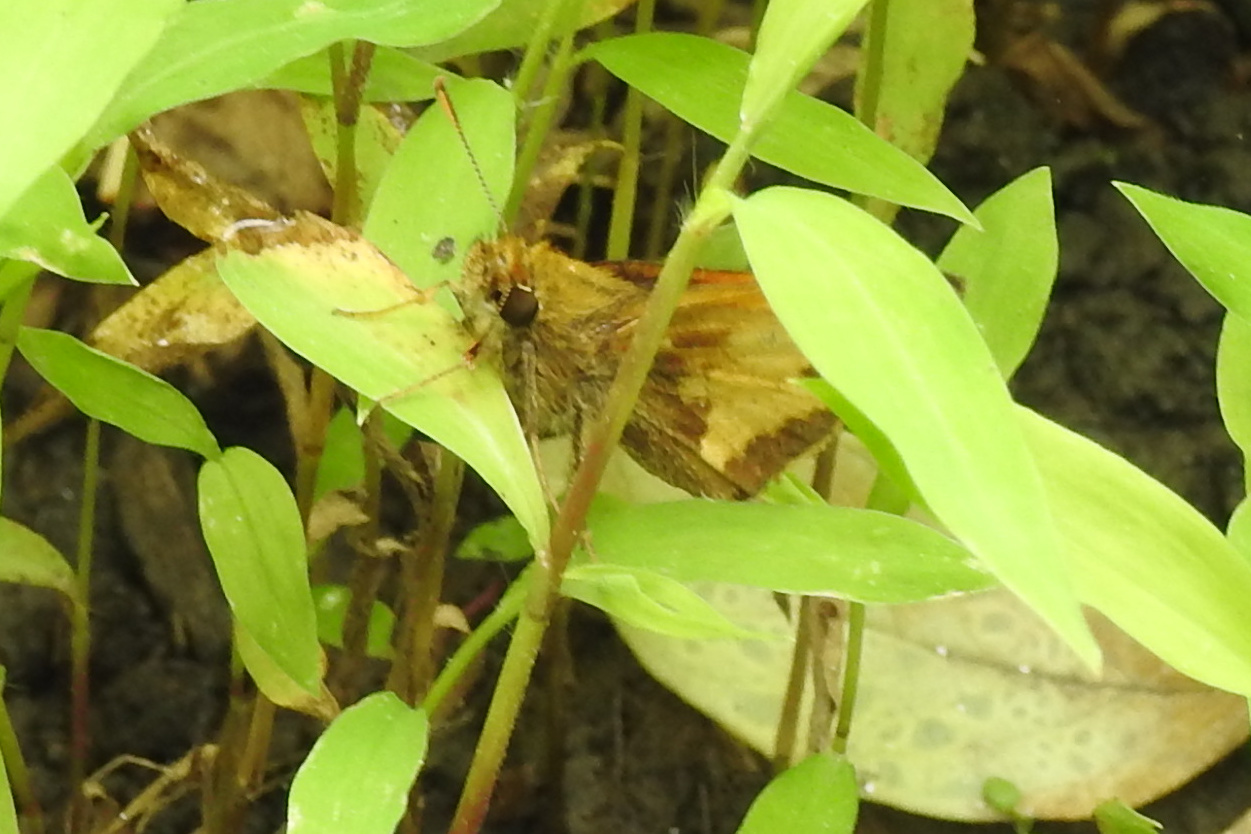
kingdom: Animalia
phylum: Arthropoda
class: Insecta
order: Lepidoptera
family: Hesperiidae
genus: Lon
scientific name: Lon hobomok
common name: Hobomok skipper
